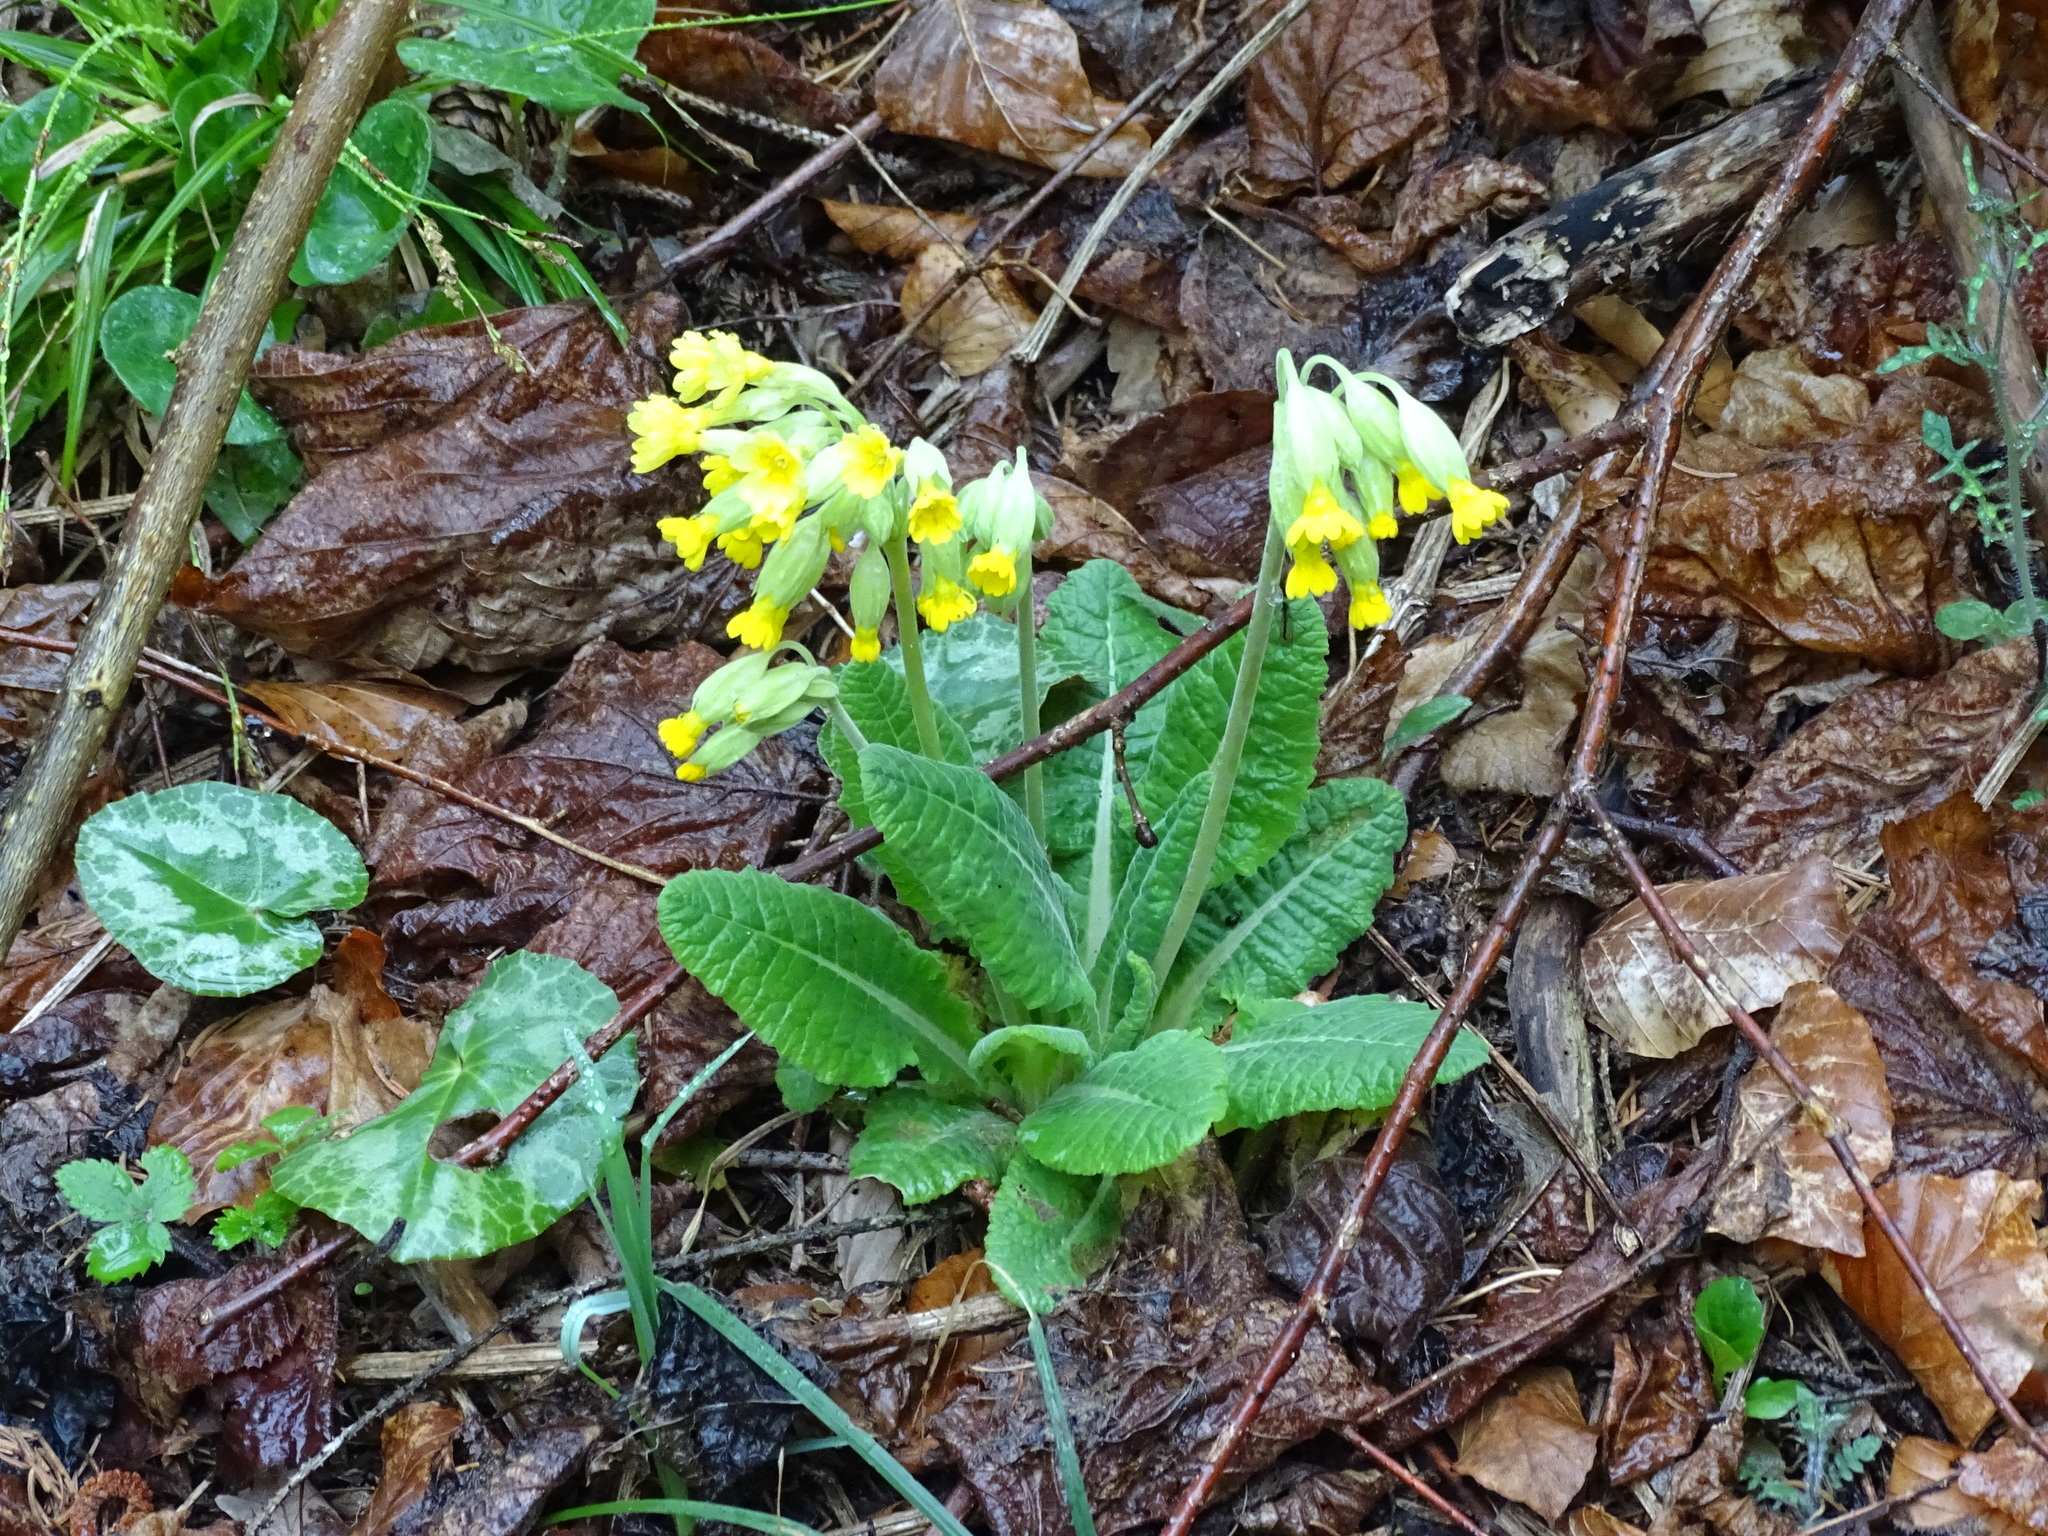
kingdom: Plantae
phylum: Tracheophyta
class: Magnoliopsida
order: Ericales
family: Primulaceae
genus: Primula
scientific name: Primula veris
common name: Cowslip
